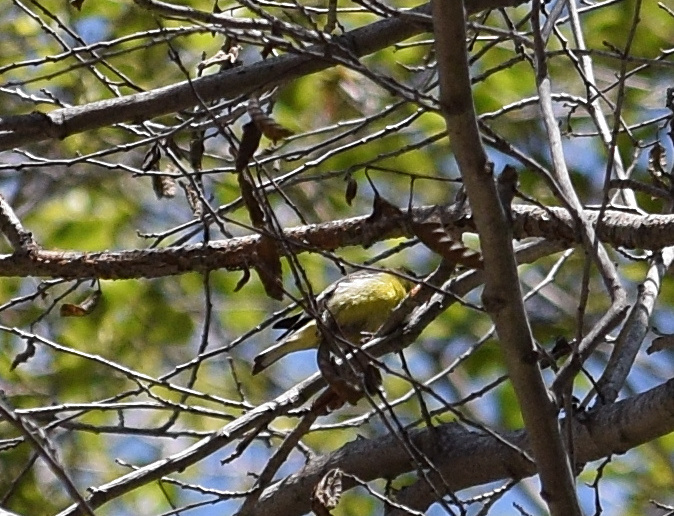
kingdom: Animalia
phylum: Chordata
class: Aves
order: Passeriformes
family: Fringillidae
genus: Spinus
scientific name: Spinus psaltria
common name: Lesser goldfinch
